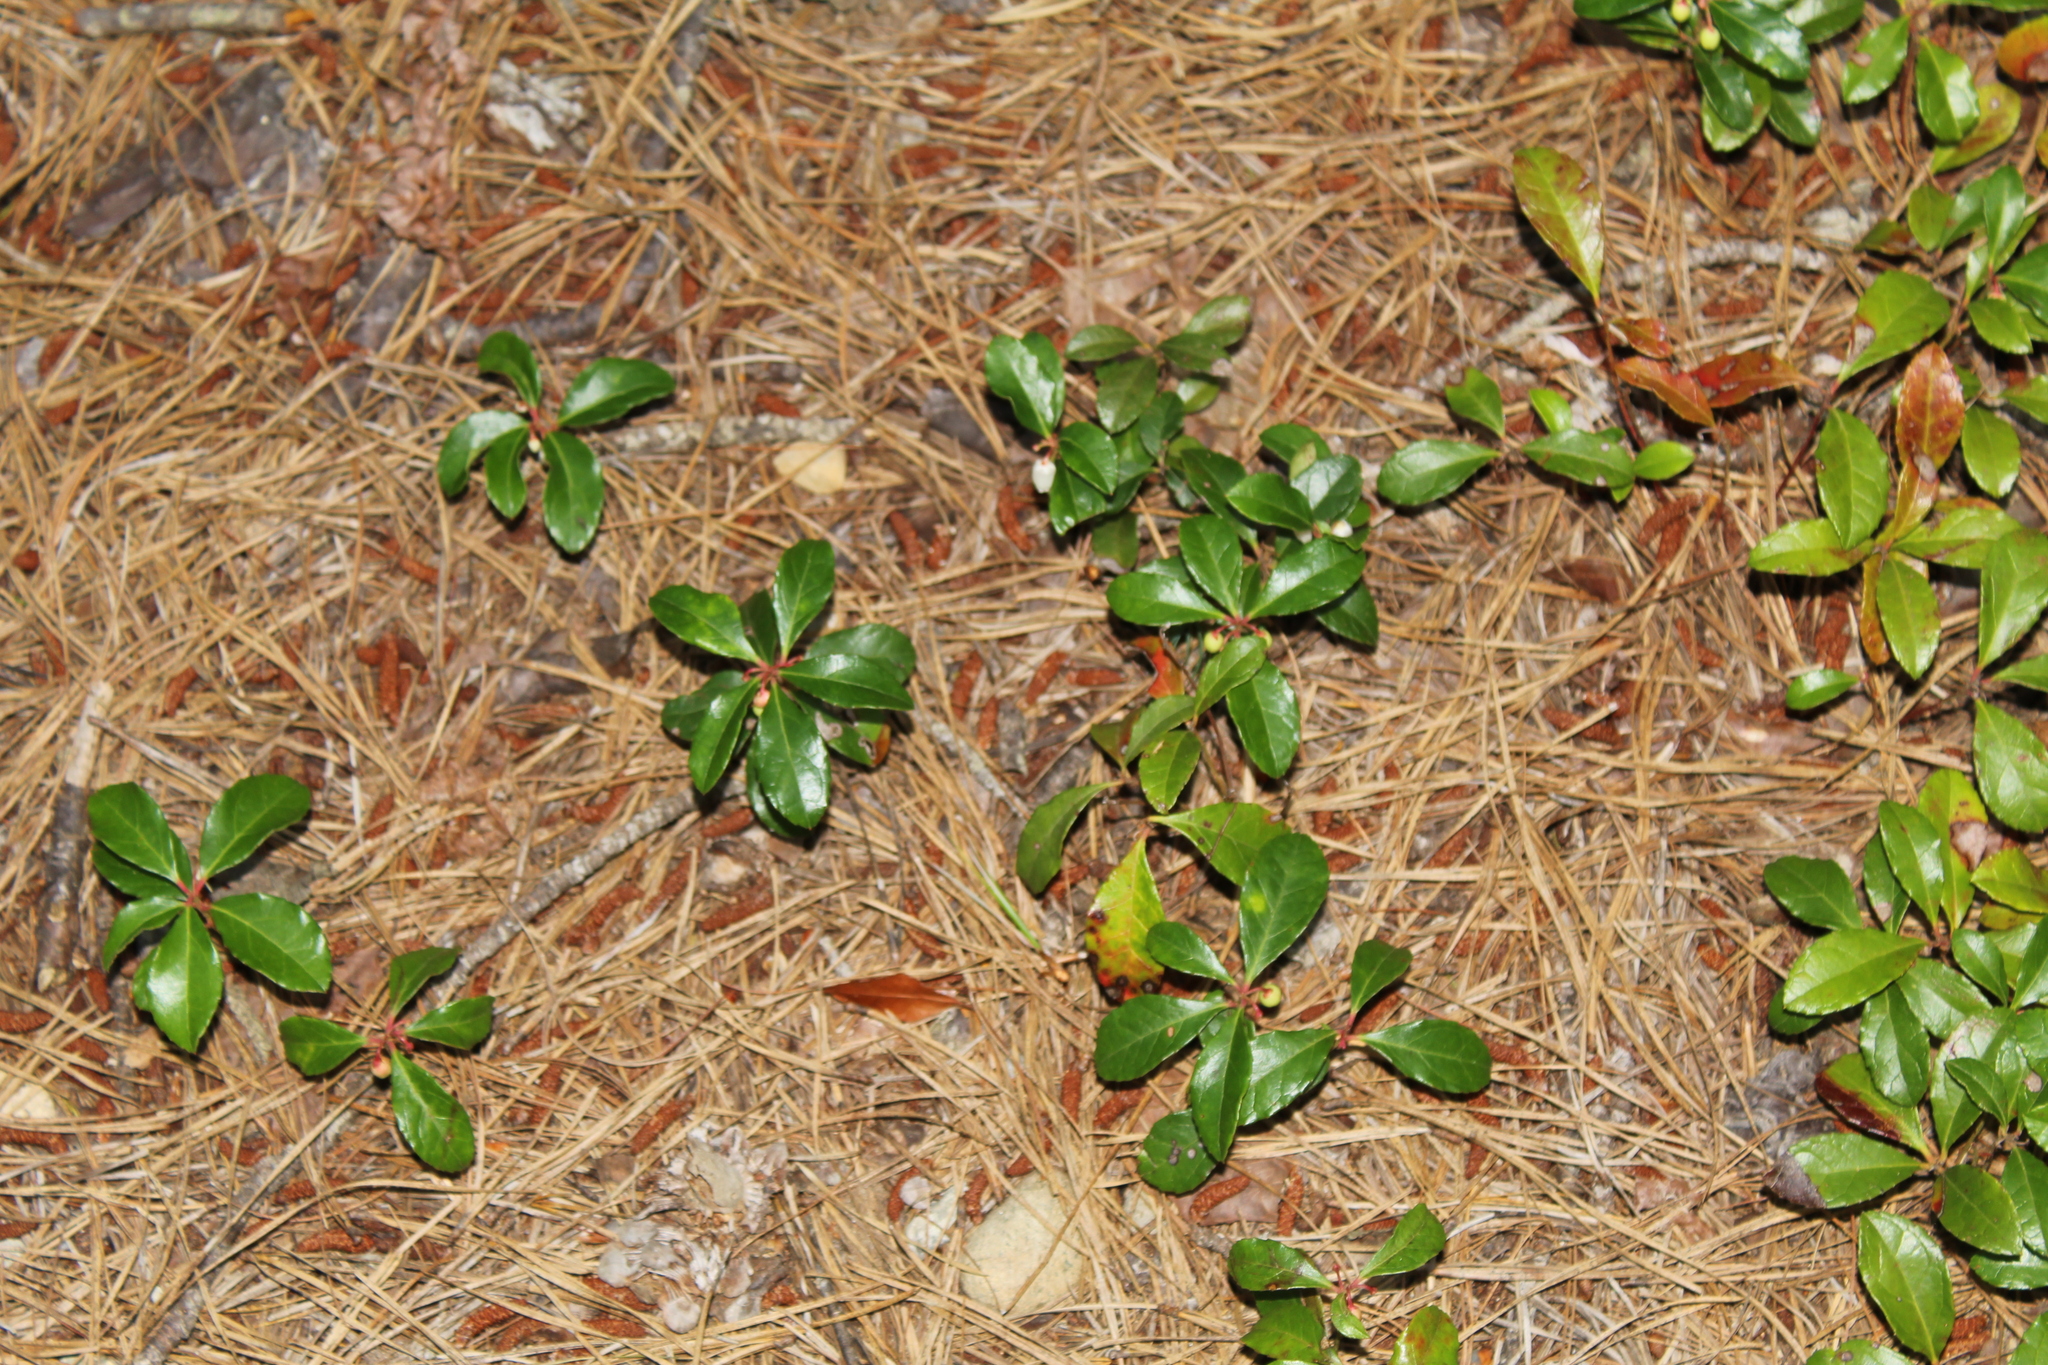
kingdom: Plantae
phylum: Tracheophyta
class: Magnoliopsida
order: Ericales
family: Ericaceae
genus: Gaultheria
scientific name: Gaultheria procumbens
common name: Checkerberry
